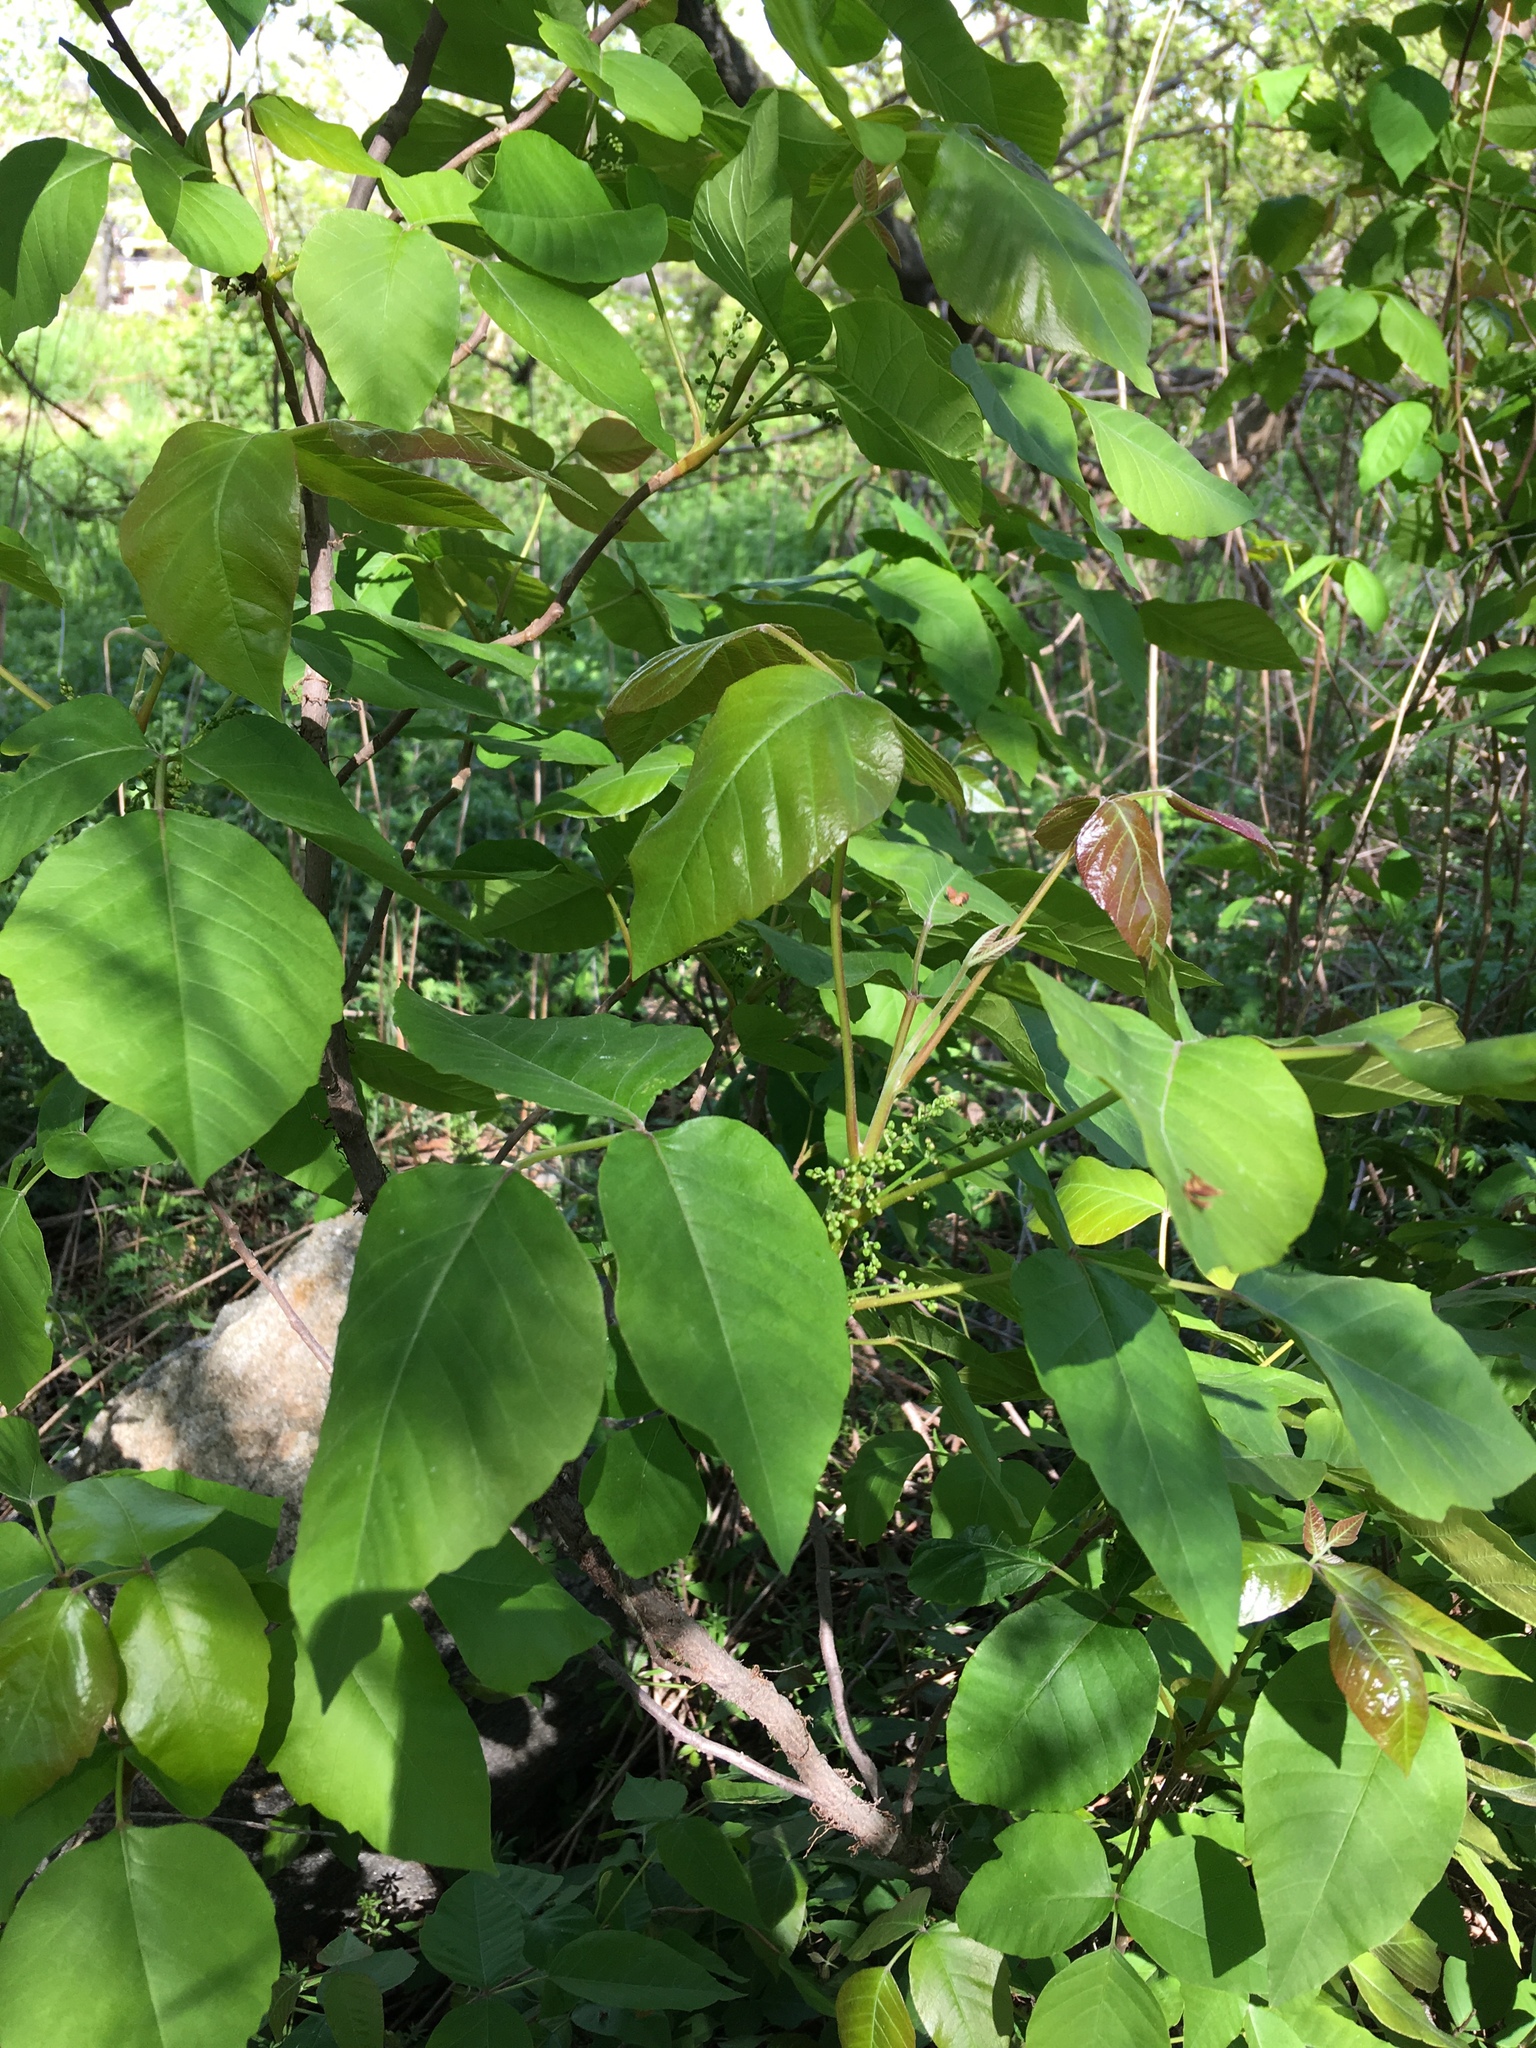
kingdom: Plantae
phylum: Tracheophyta
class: Magnoliopsida
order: Sapindales
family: Anacardiaceae
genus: Toxicodendron
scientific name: Toxicodendron radicans
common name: Poison ivy
